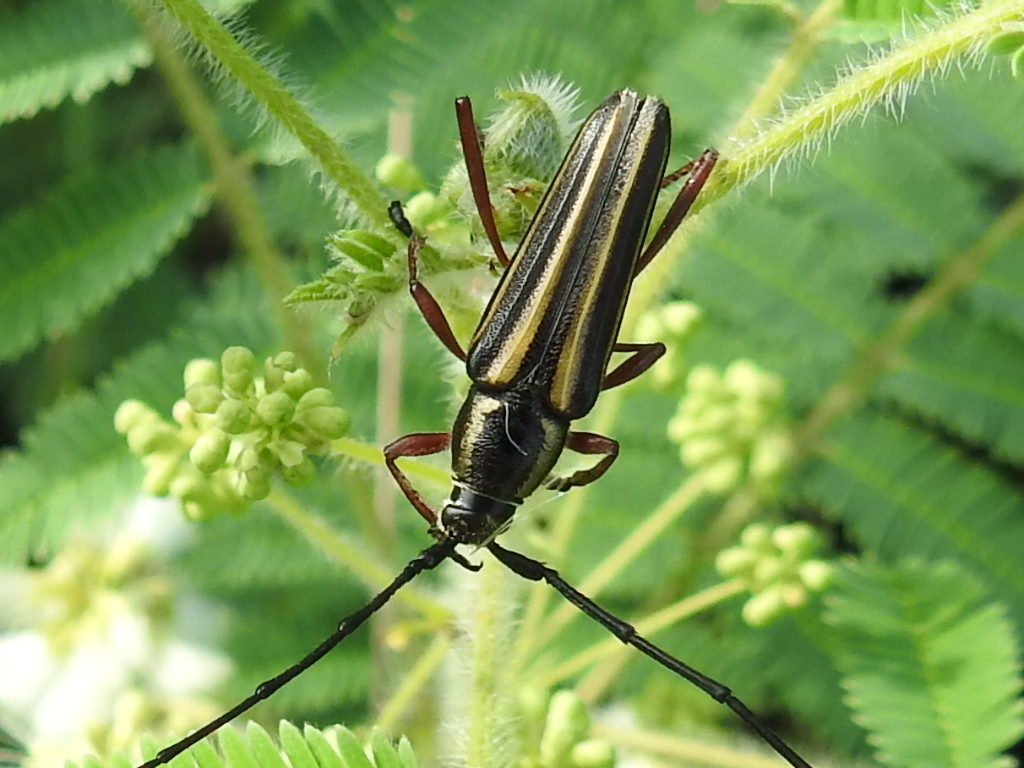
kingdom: Animalia
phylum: Arthropoda
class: Insecta
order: Coleoptera
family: Cerambycidae
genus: Sphaenothecus
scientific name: Sphaenothecus bilineatus
